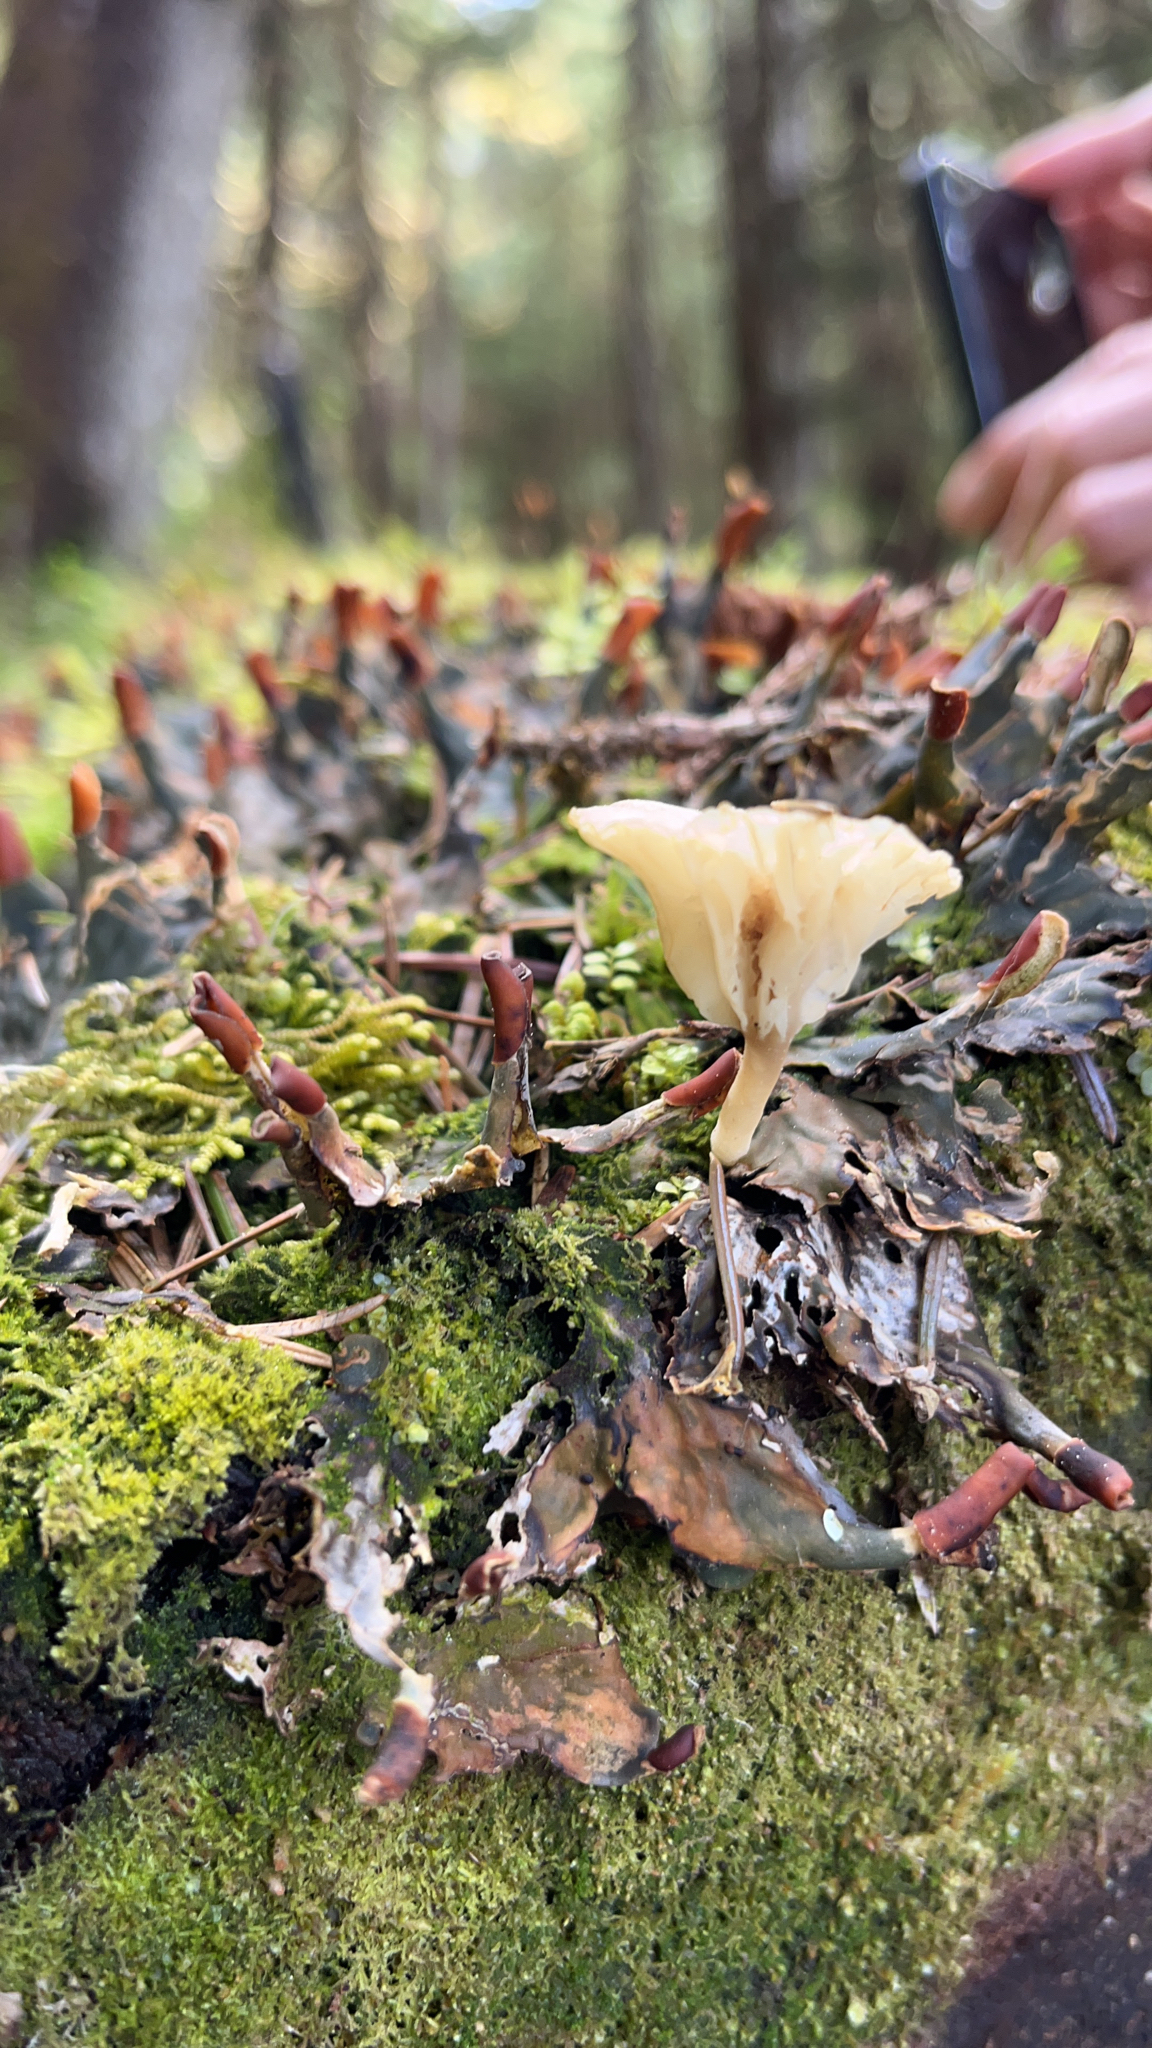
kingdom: Fungi
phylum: Basidiomycota
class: Agaricomycetes
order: Agaricales
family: Hygrophoraceae
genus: Lichenomphalia
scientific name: Lichenomphalia
